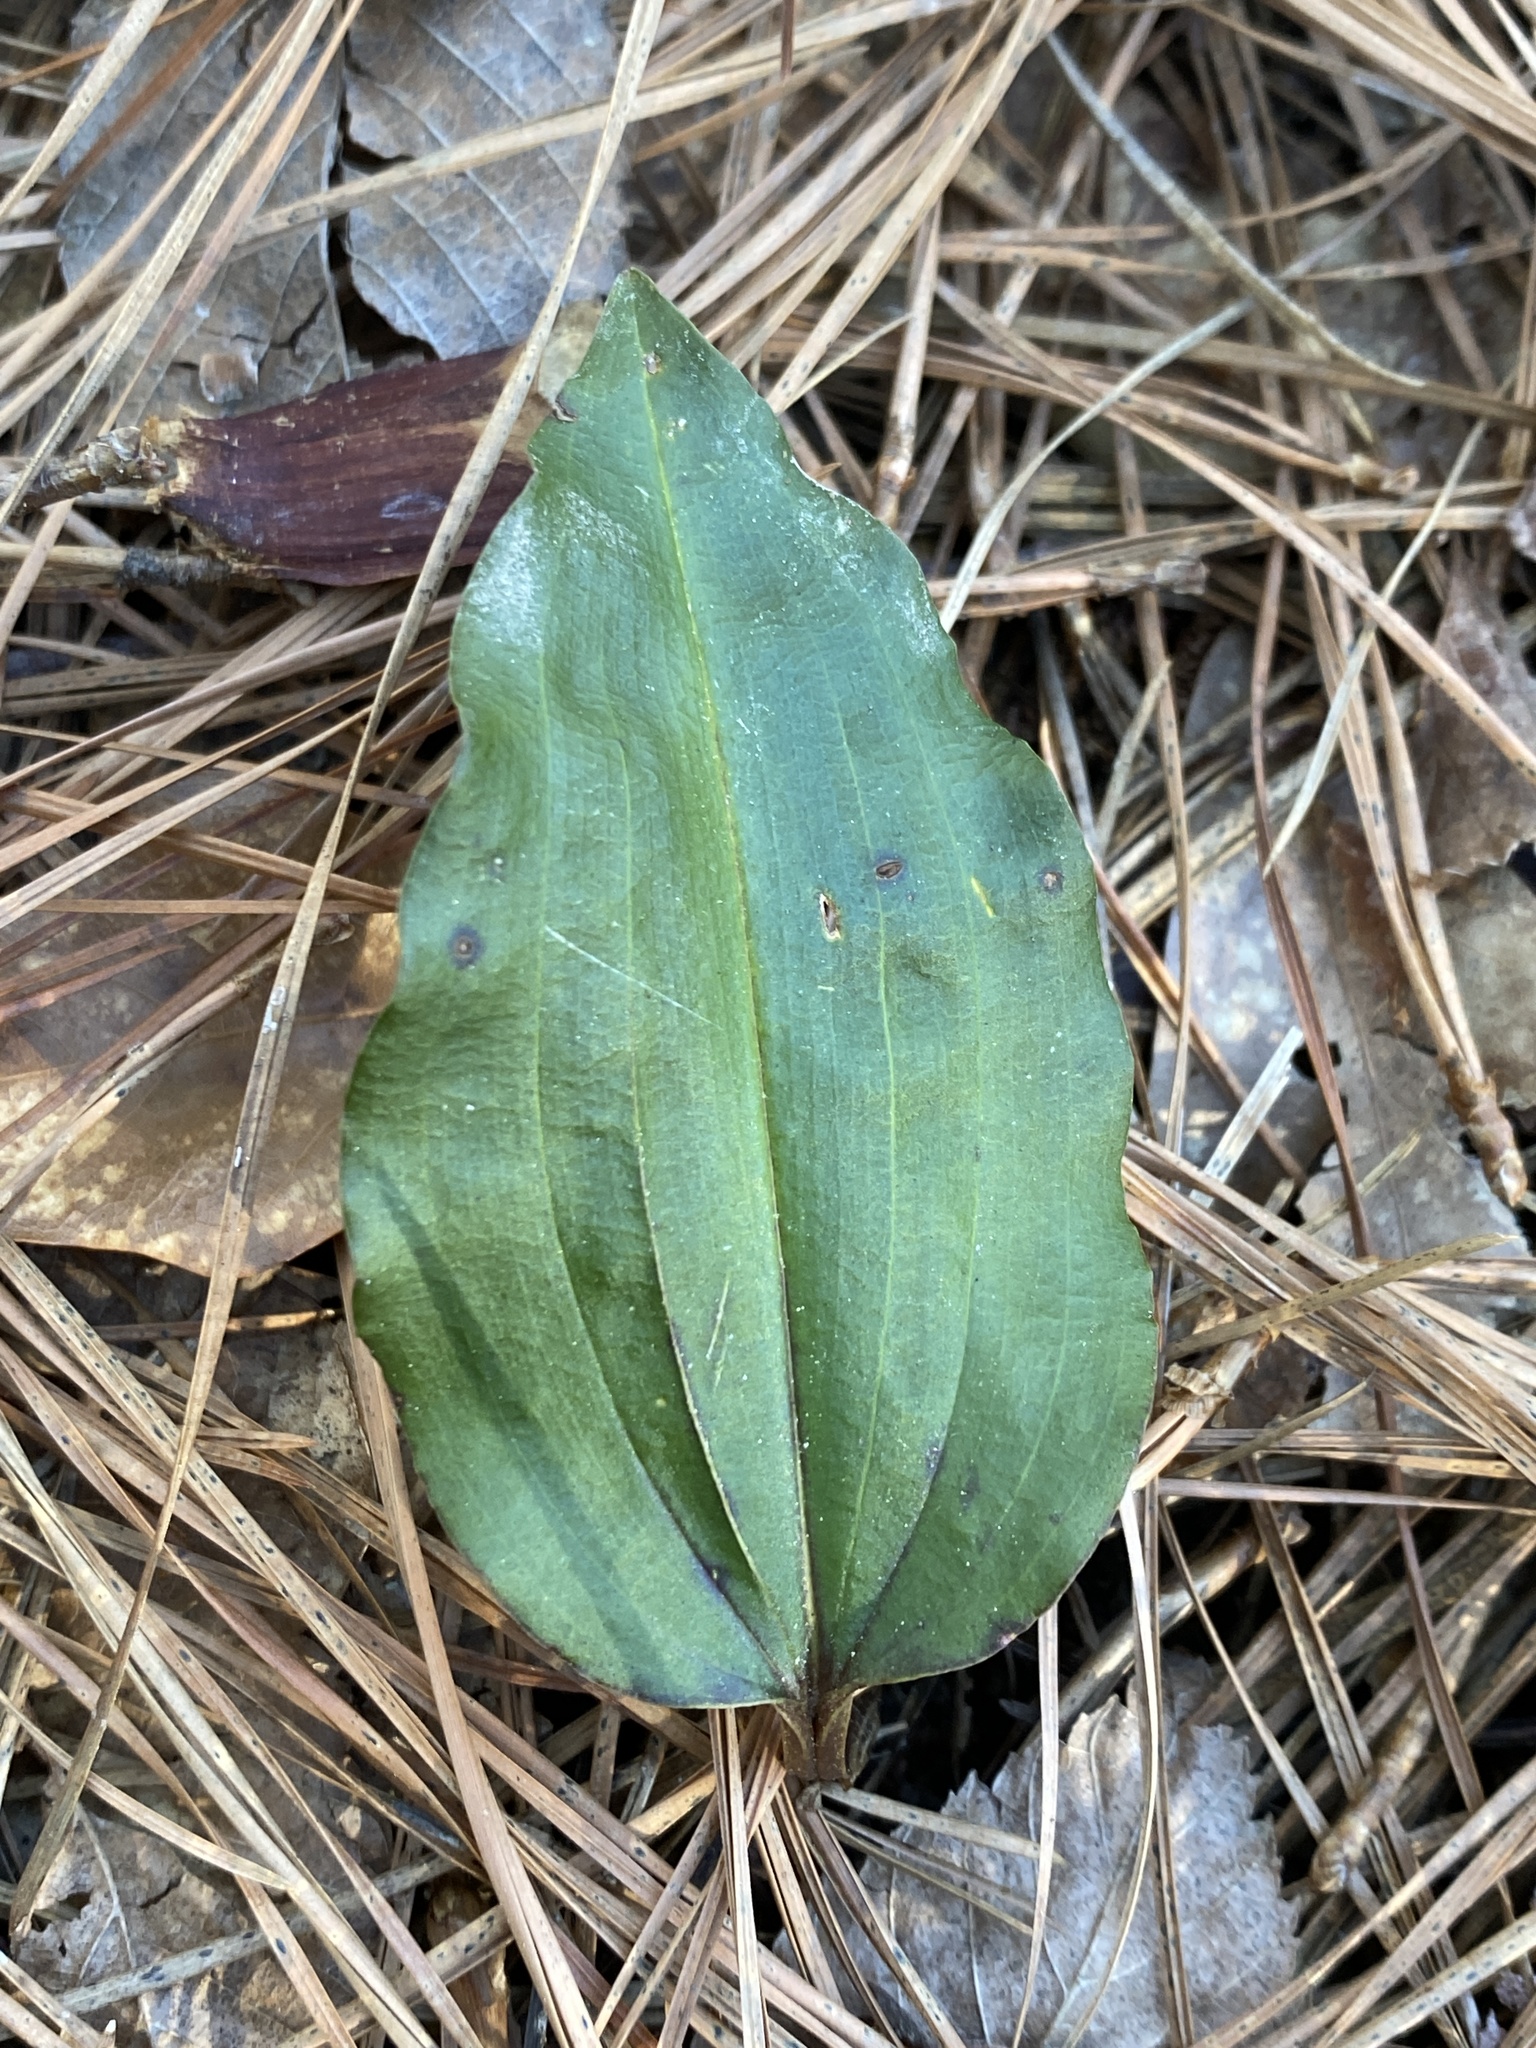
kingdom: Plantae
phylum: Tracheophyta
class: Liliopsida
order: Asparagales
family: Orchidaceae
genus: Tipularia
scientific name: Tipularia discolor
